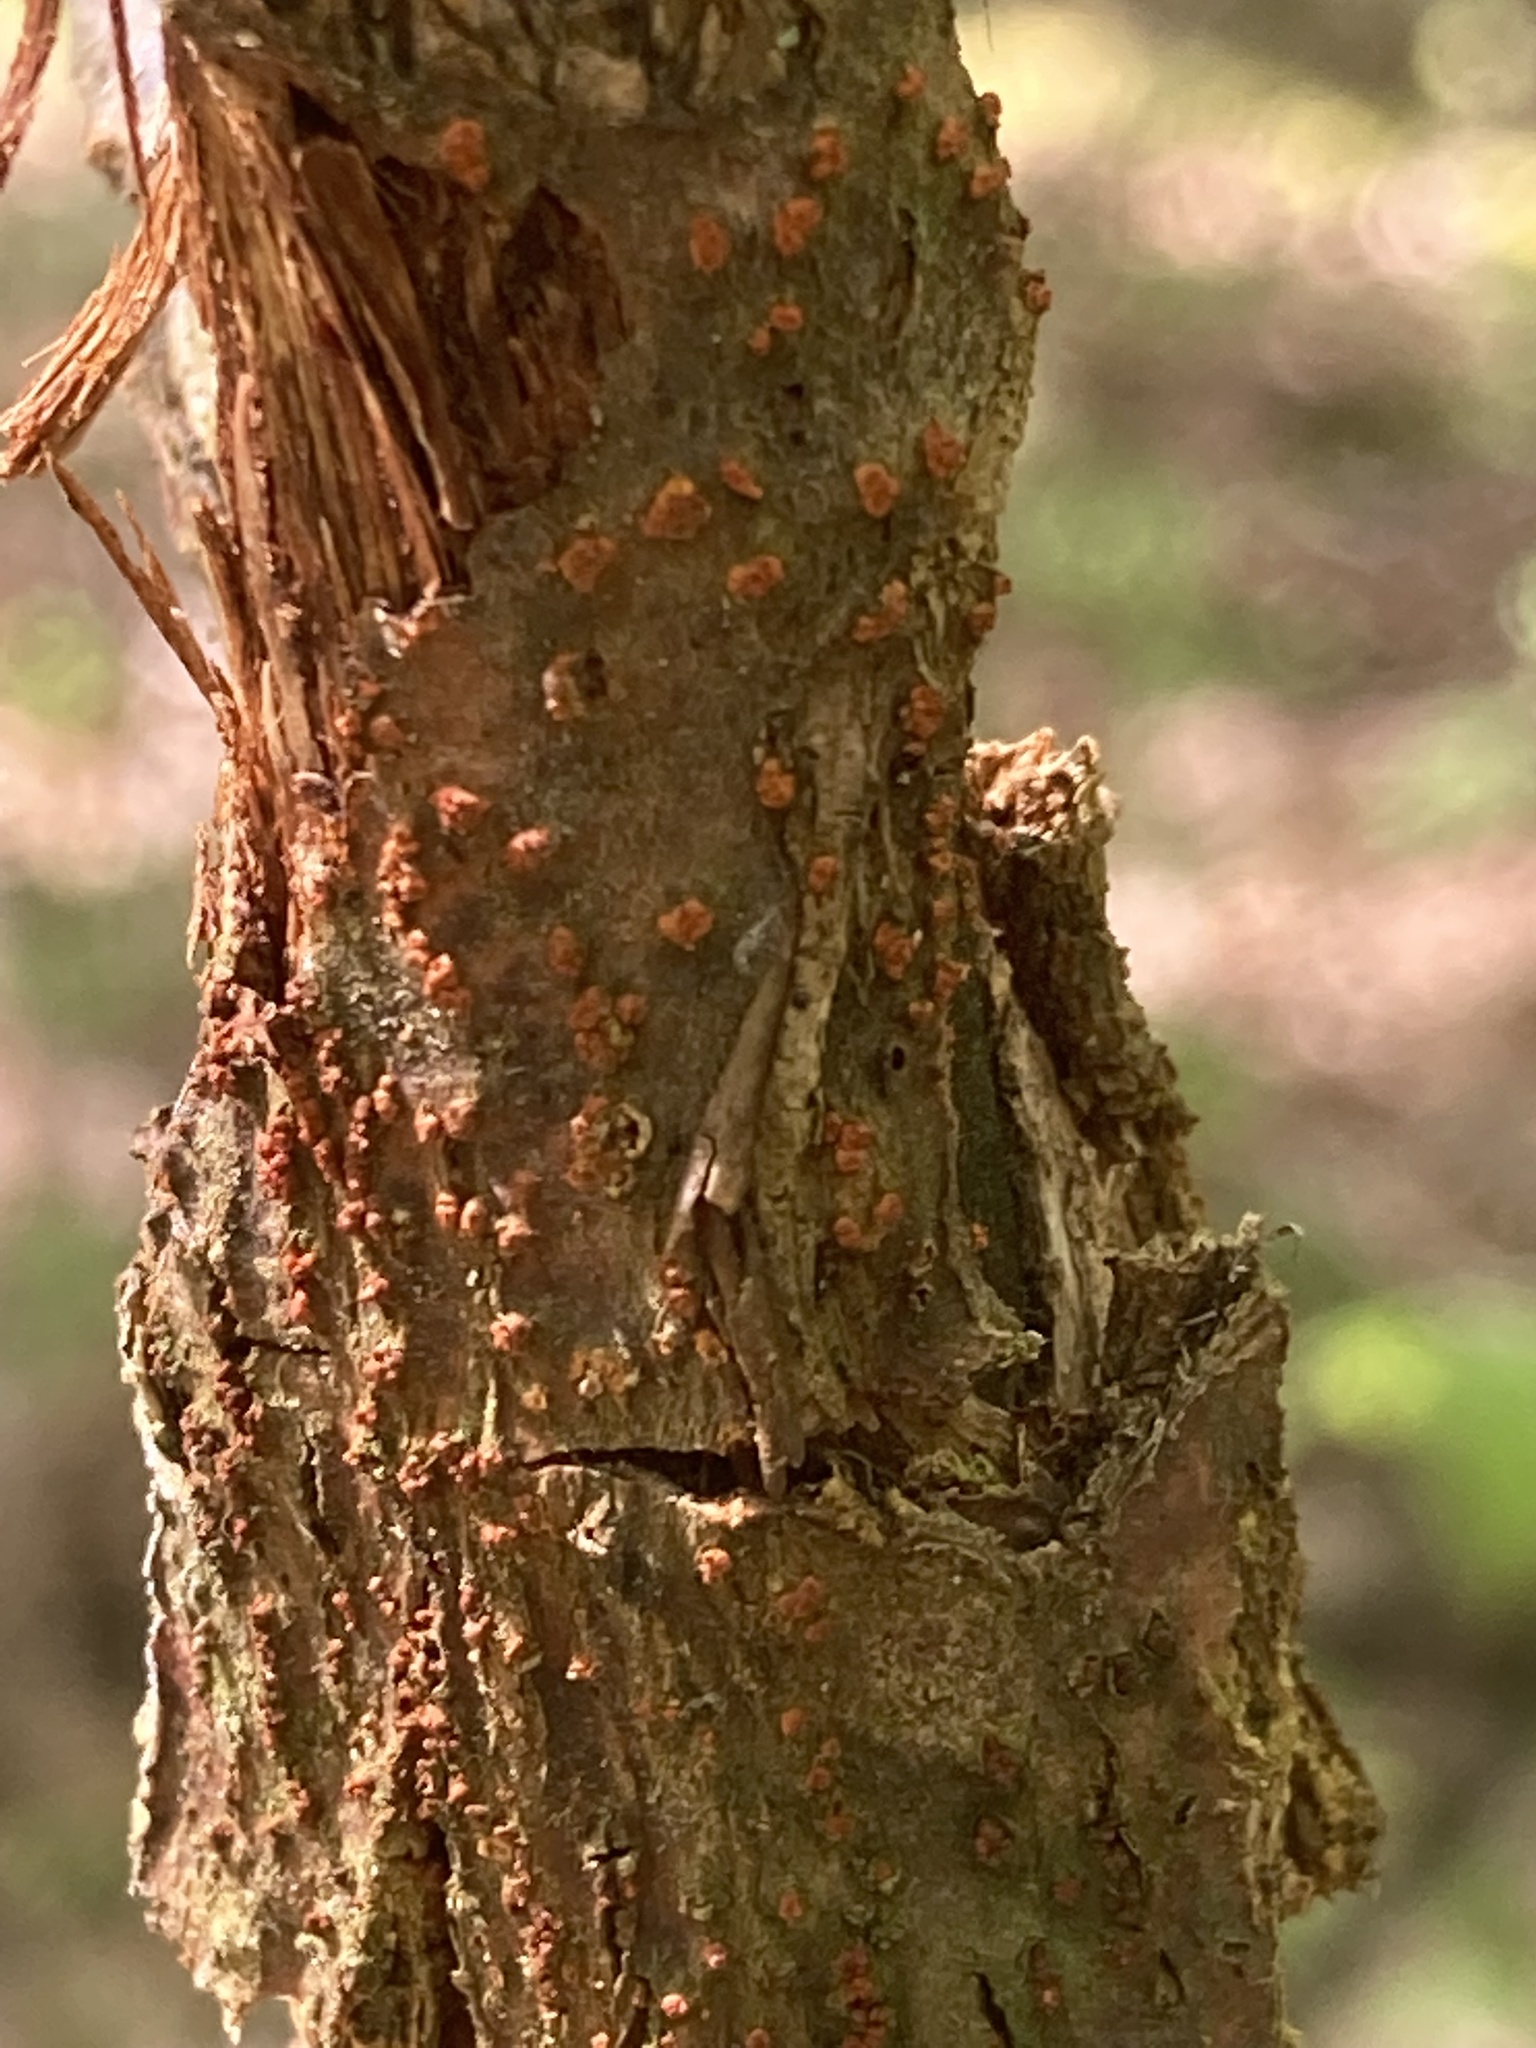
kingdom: Fungi
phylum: Ascomycota
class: Sordariomycetes
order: Diaporthales
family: Cryphonectriaceae
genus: Cryphonectria
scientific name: Cryphonectria parasitica
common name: Chestnut blight
